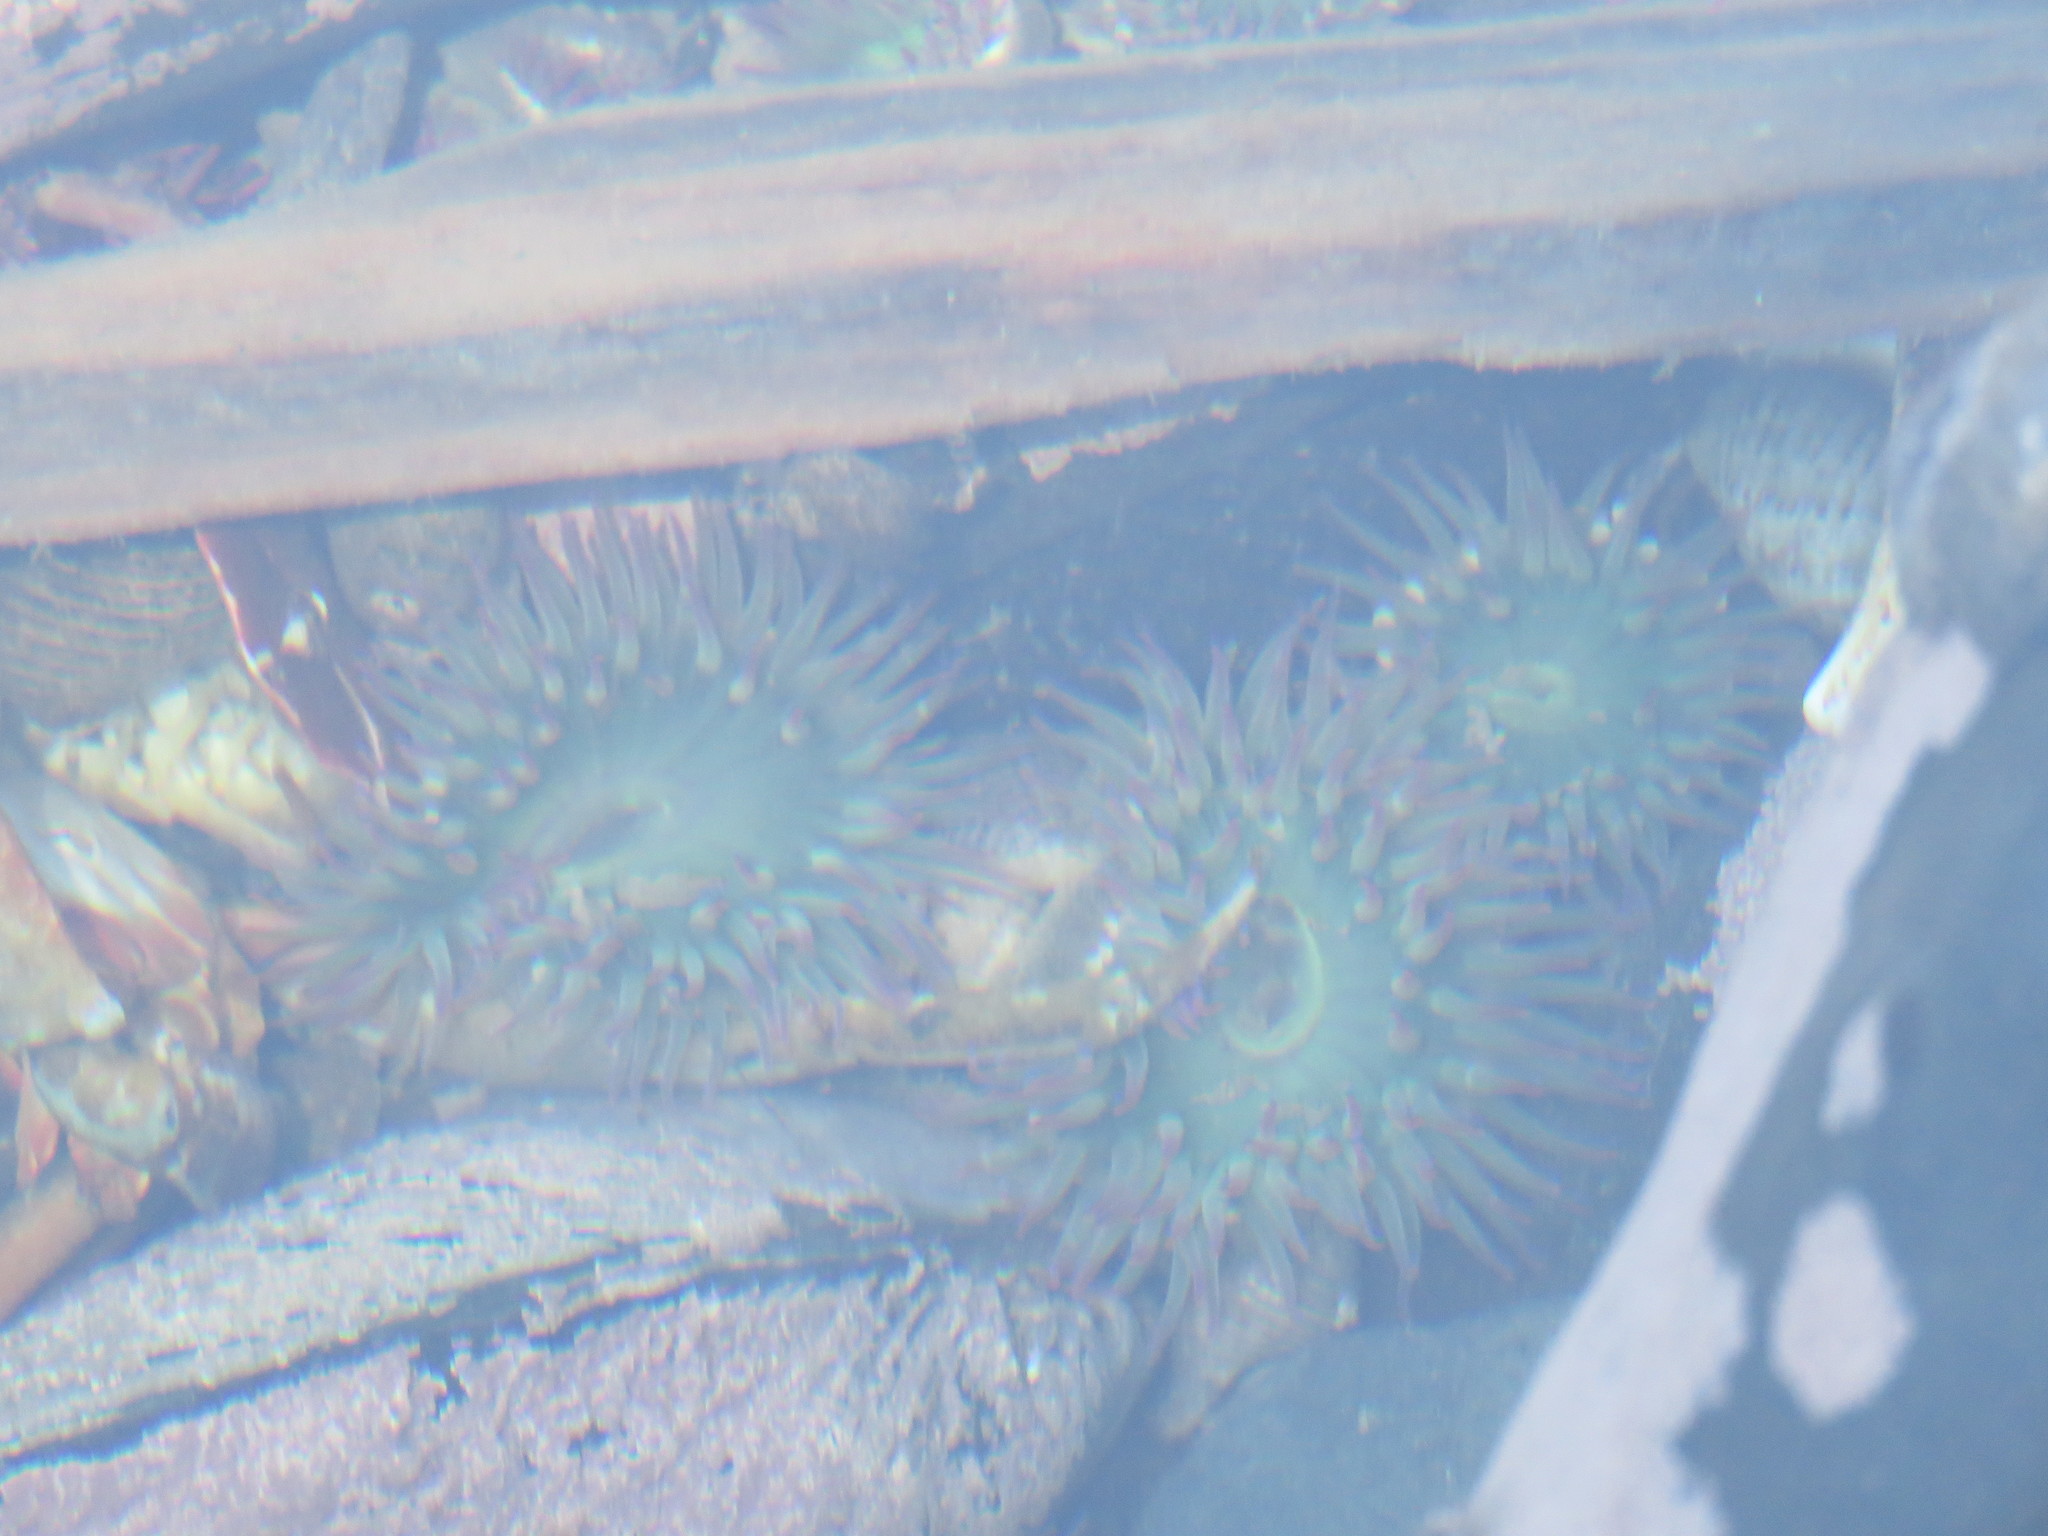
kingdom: Animalia
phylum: Cnidaria
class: Anthozoa
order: Actiniaria
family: Actiniidae
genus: Anthopleura
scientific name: Anthopleura elegantissima
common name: Clonal anemone
